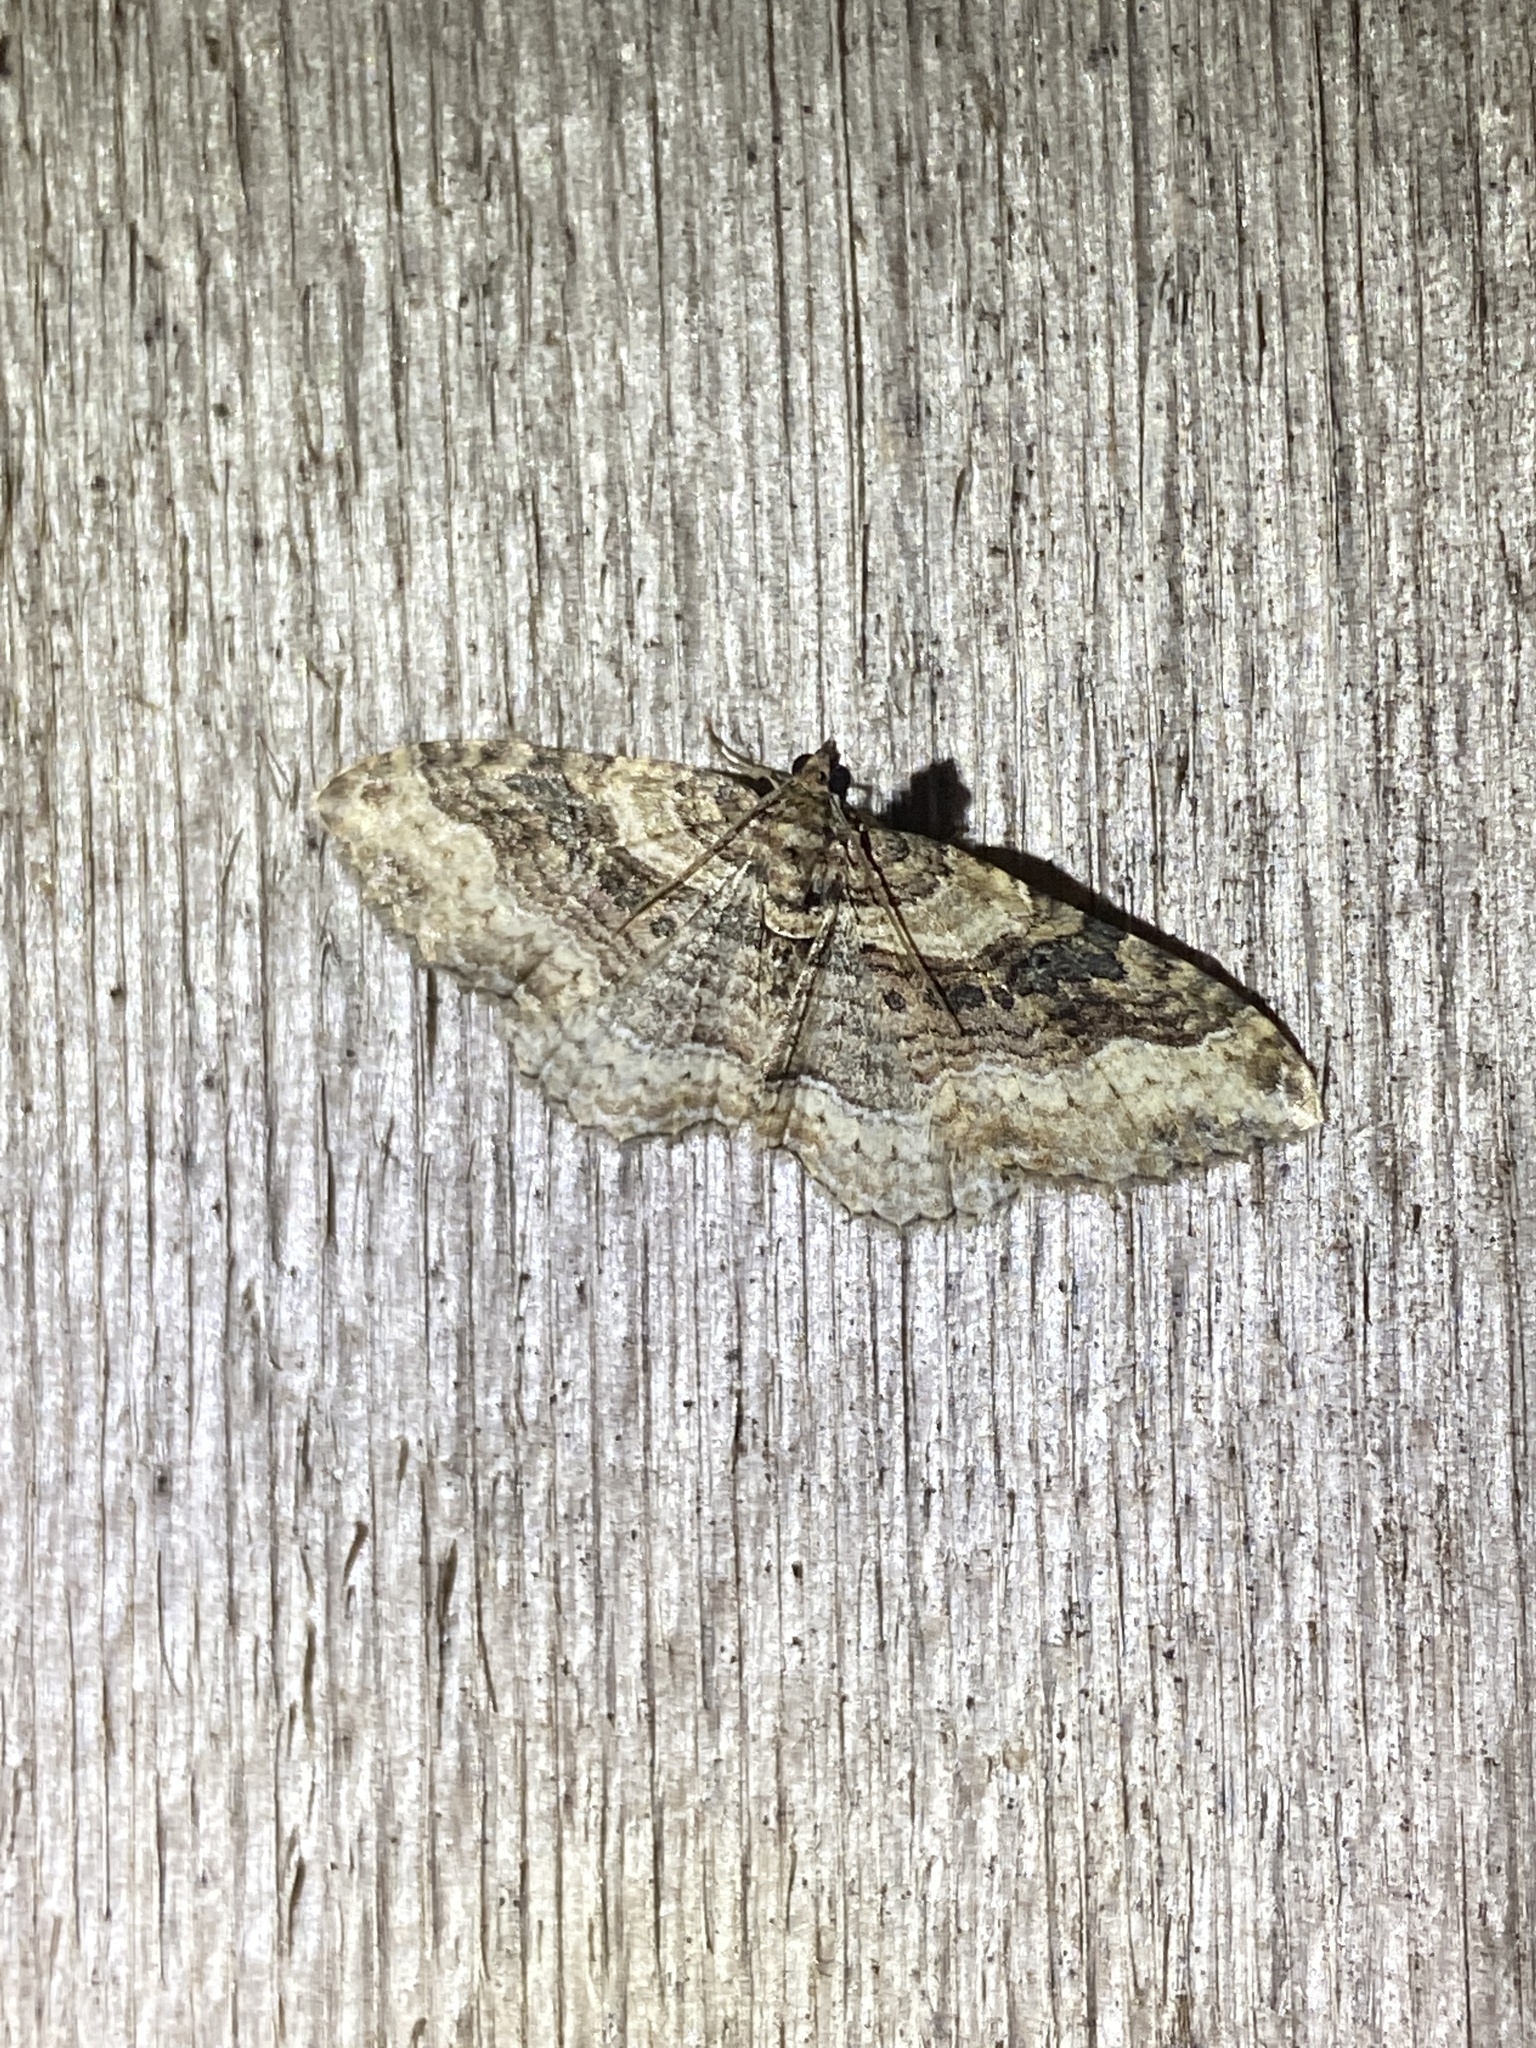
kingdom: Animalia
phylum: Arthropoda
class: Insecta
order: Lepidoptera
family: Geometridae
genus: Costaconvexa
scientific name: Costaconvexa centrostrigaria
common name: Bent-line carpet
